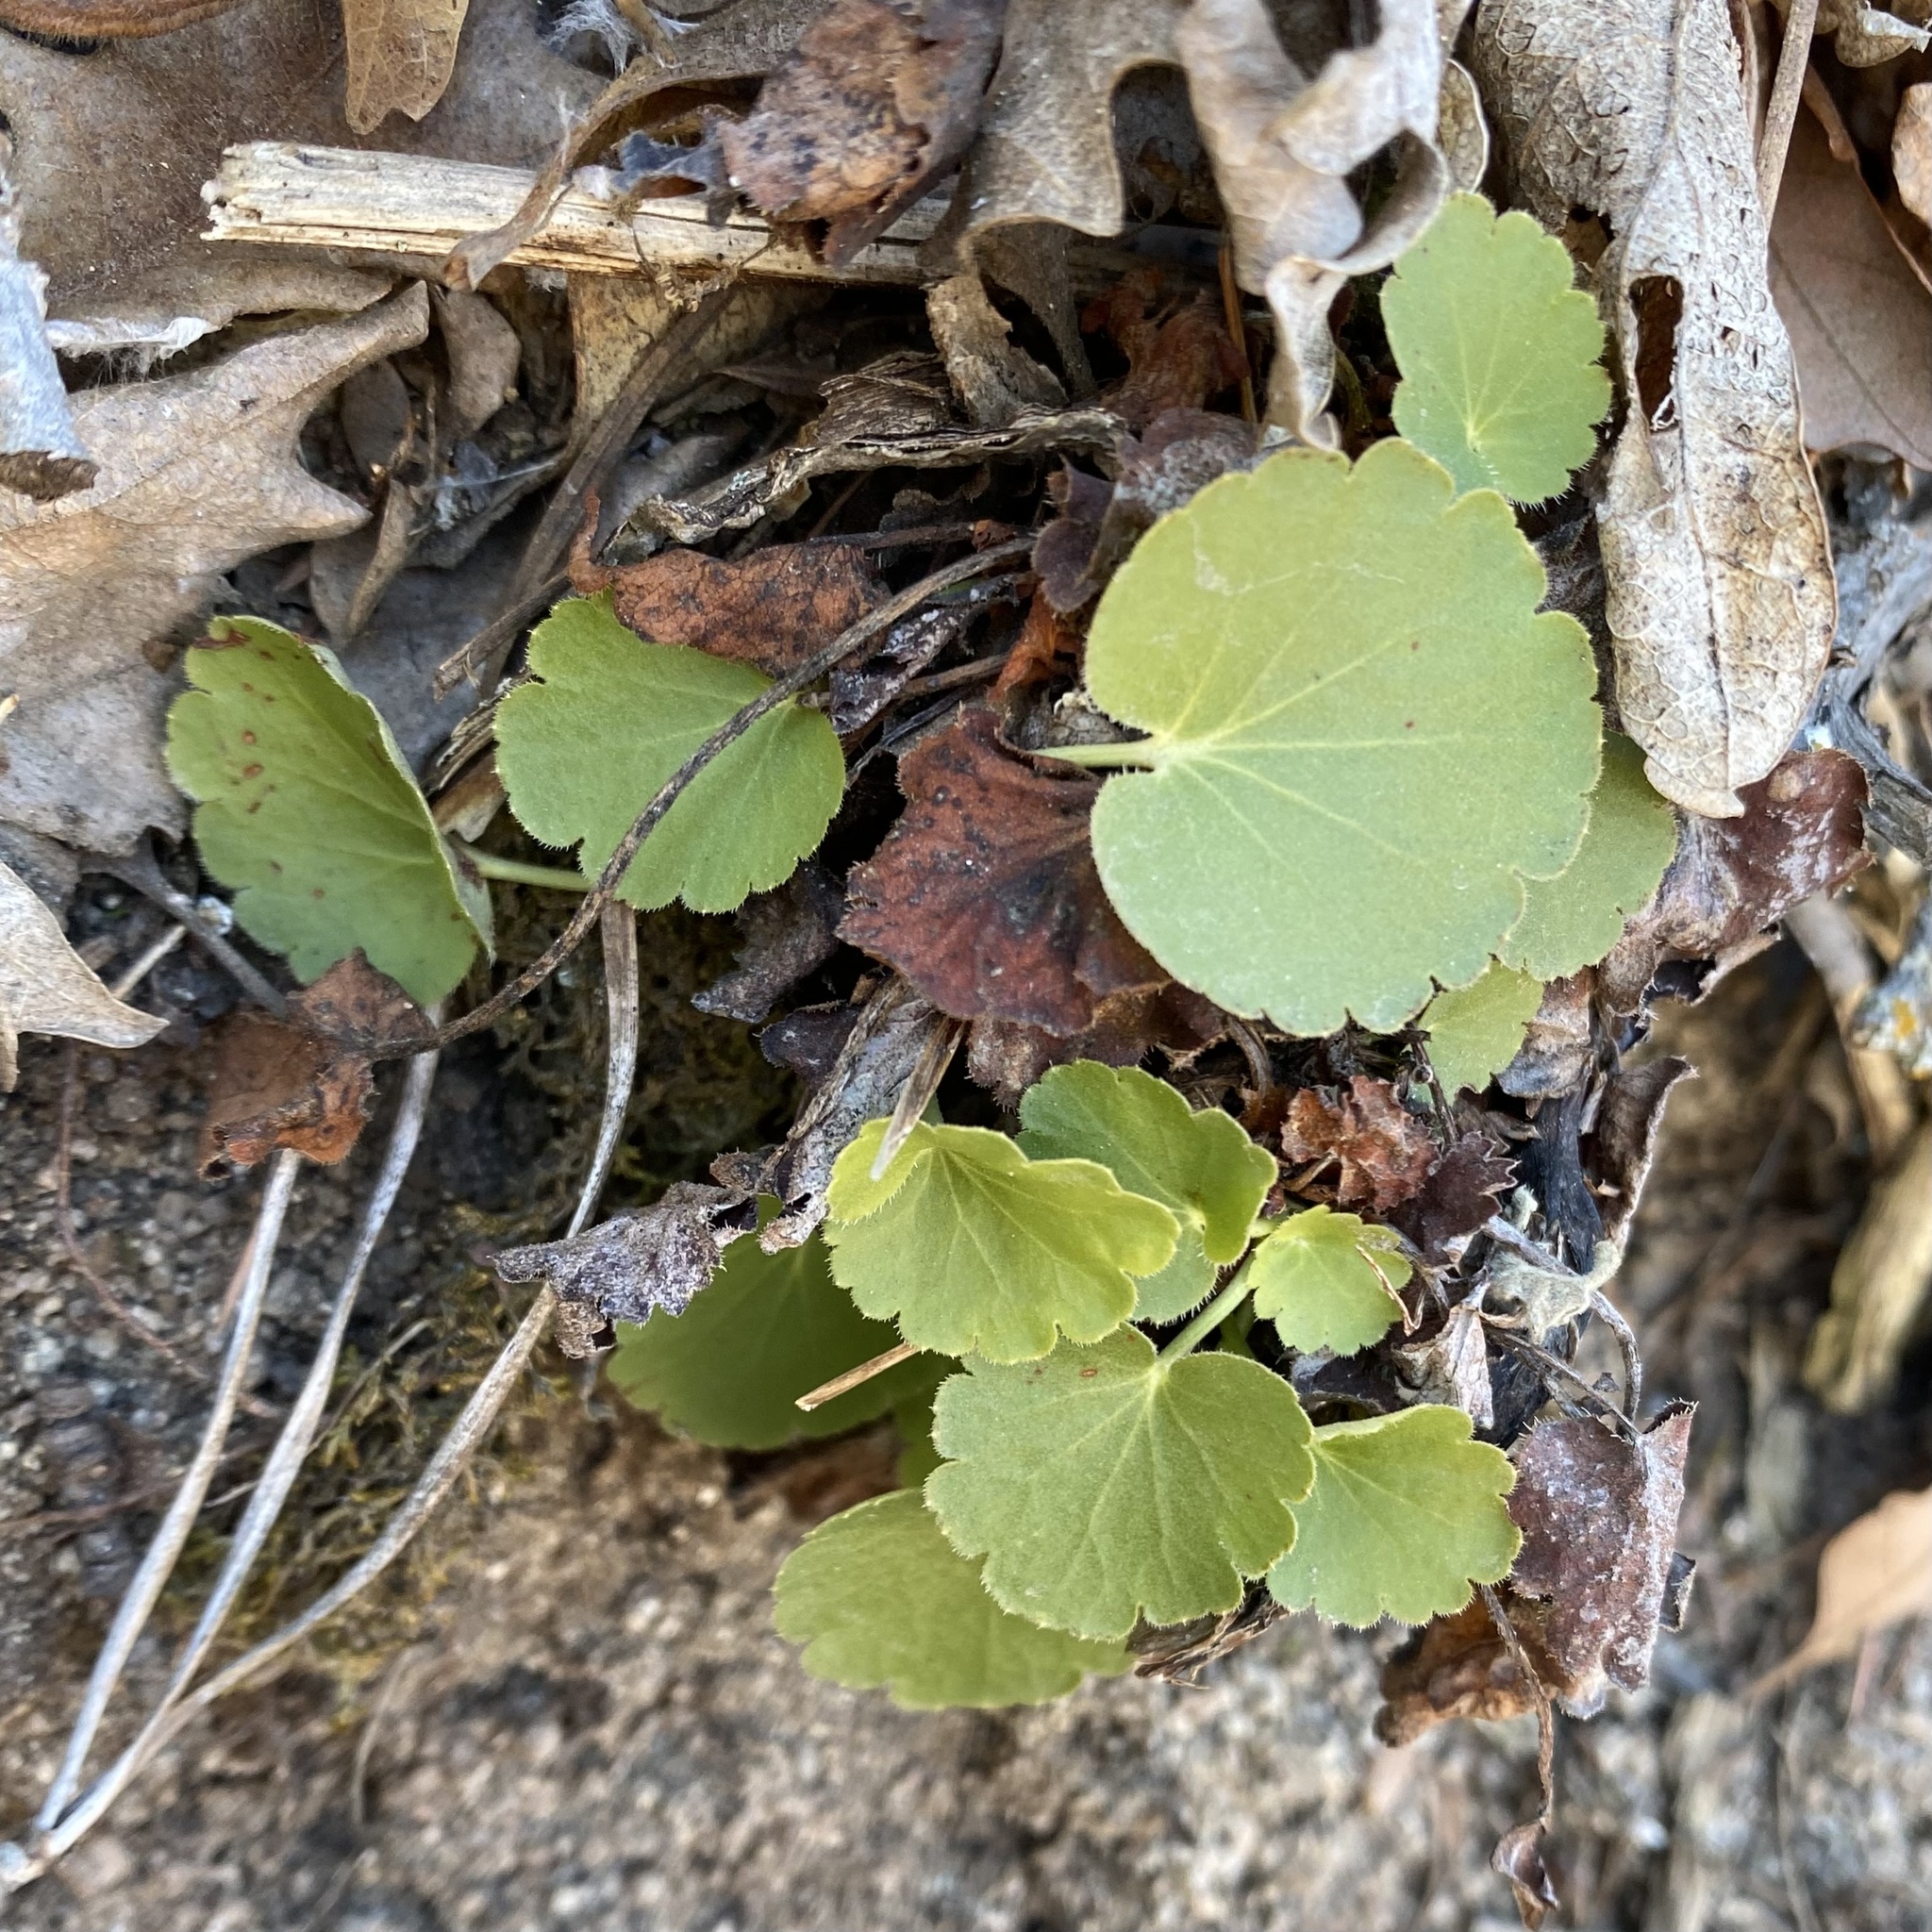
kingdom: Plantae
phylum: Tracheophyta
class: Magnoliopsida
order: Saxifragales
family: Saxifragaceae
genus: Heuchera
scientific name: Heuchera richardsonii
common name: Richardson's alumroot
